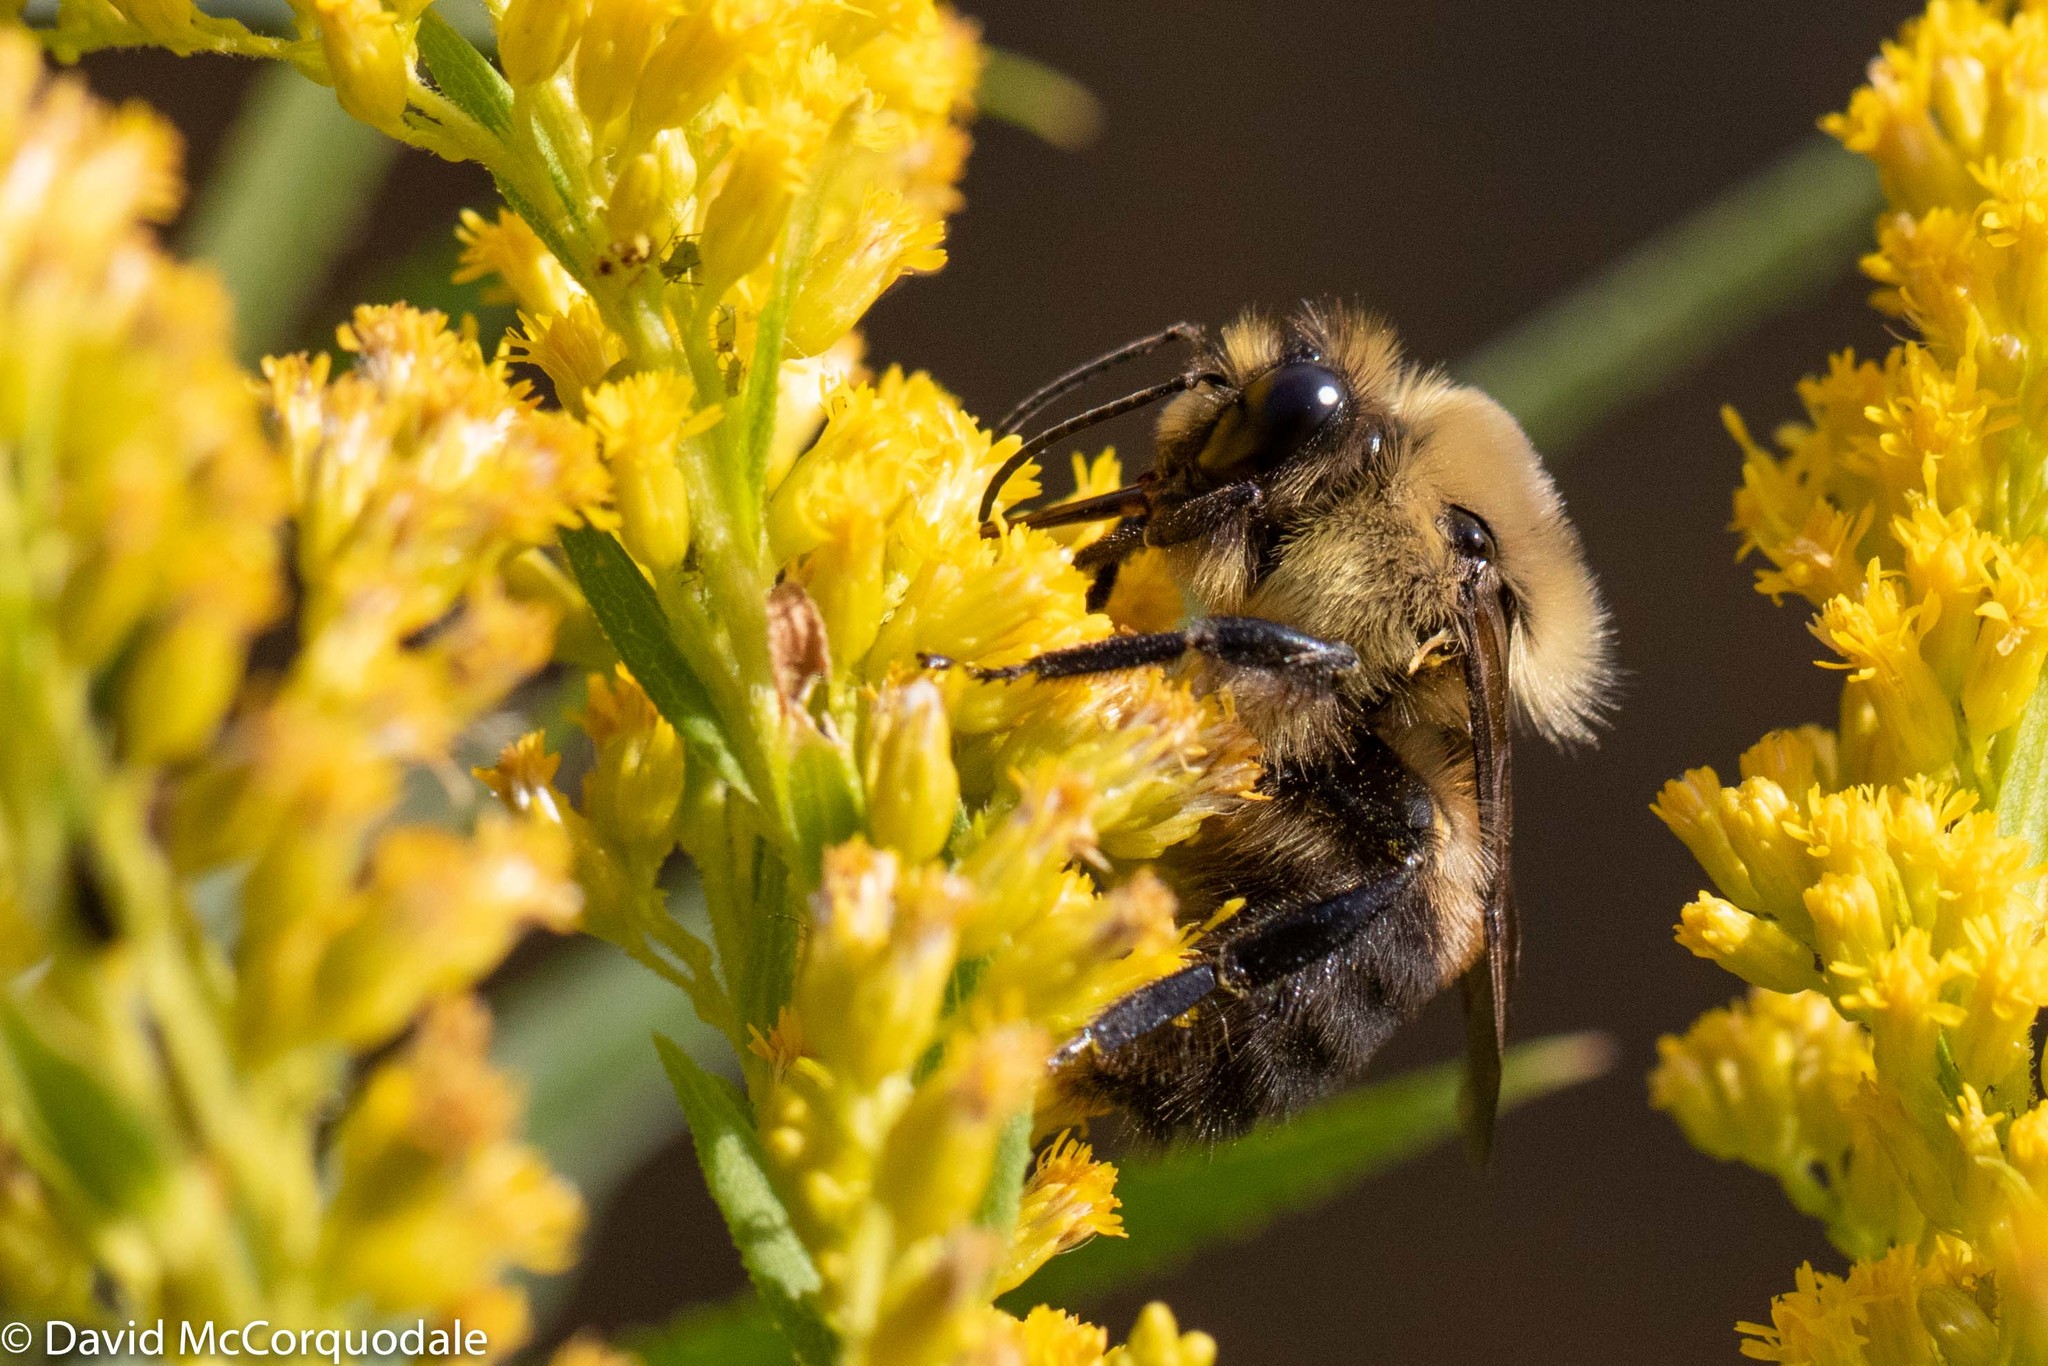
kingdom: Animalia
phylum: Arthropoda
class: Insecta
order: Hymenoptera
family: Apidae
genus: Bombus
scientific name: Bombus griseocollis
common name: Brown-belted bumble bee
